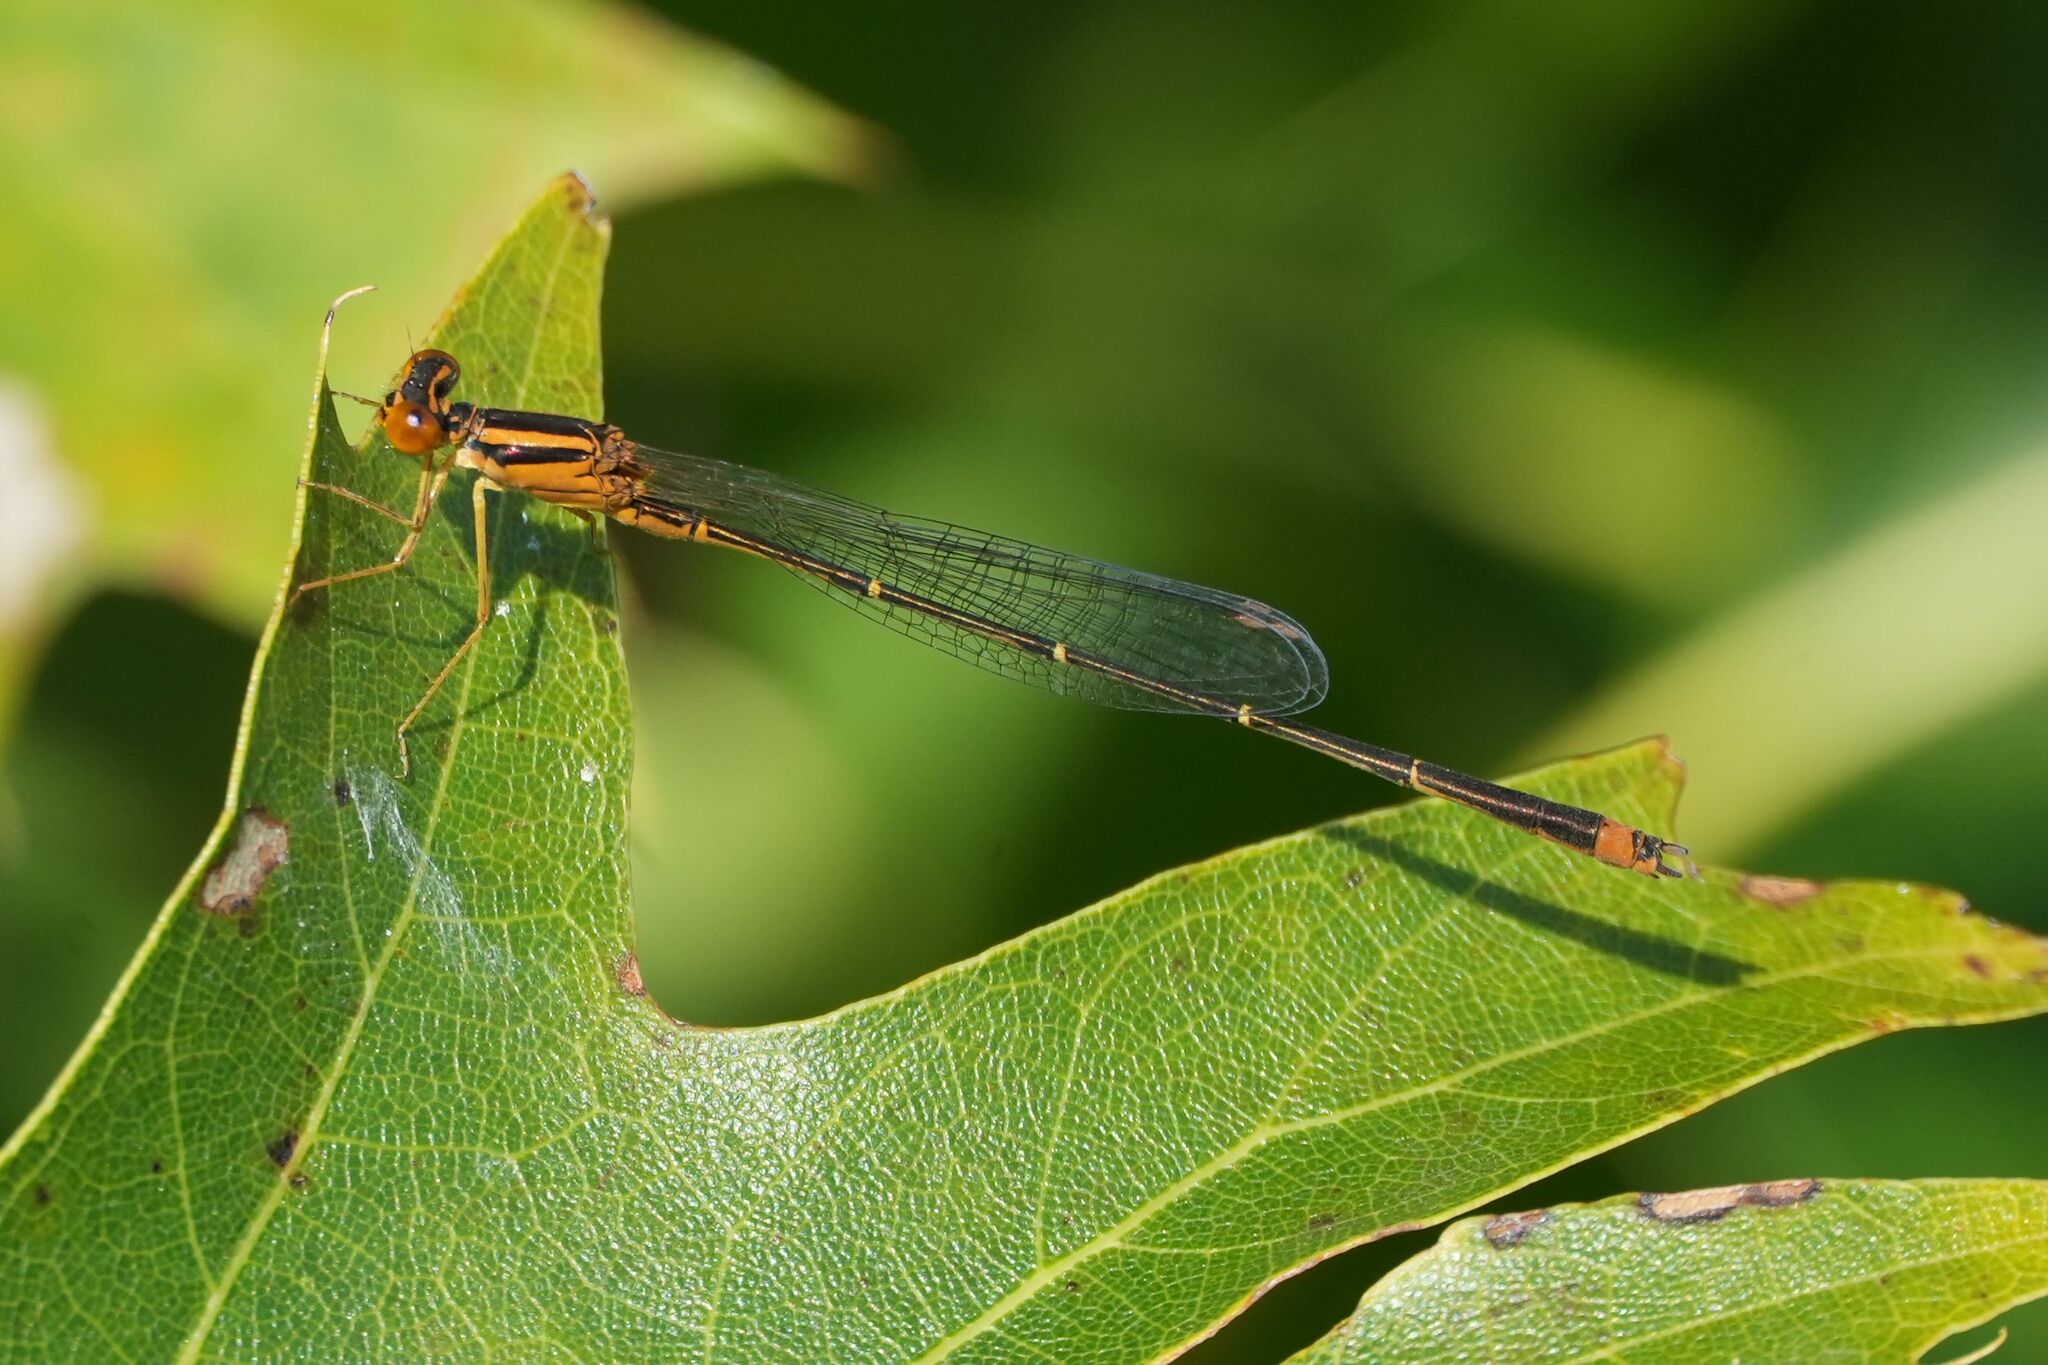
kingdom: Animalia
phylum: Arthropoda
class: Insecta
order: Odonata
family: Coenagrionidae
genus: Enallagma
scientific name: Enallagma signatum
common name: Orange bluet
